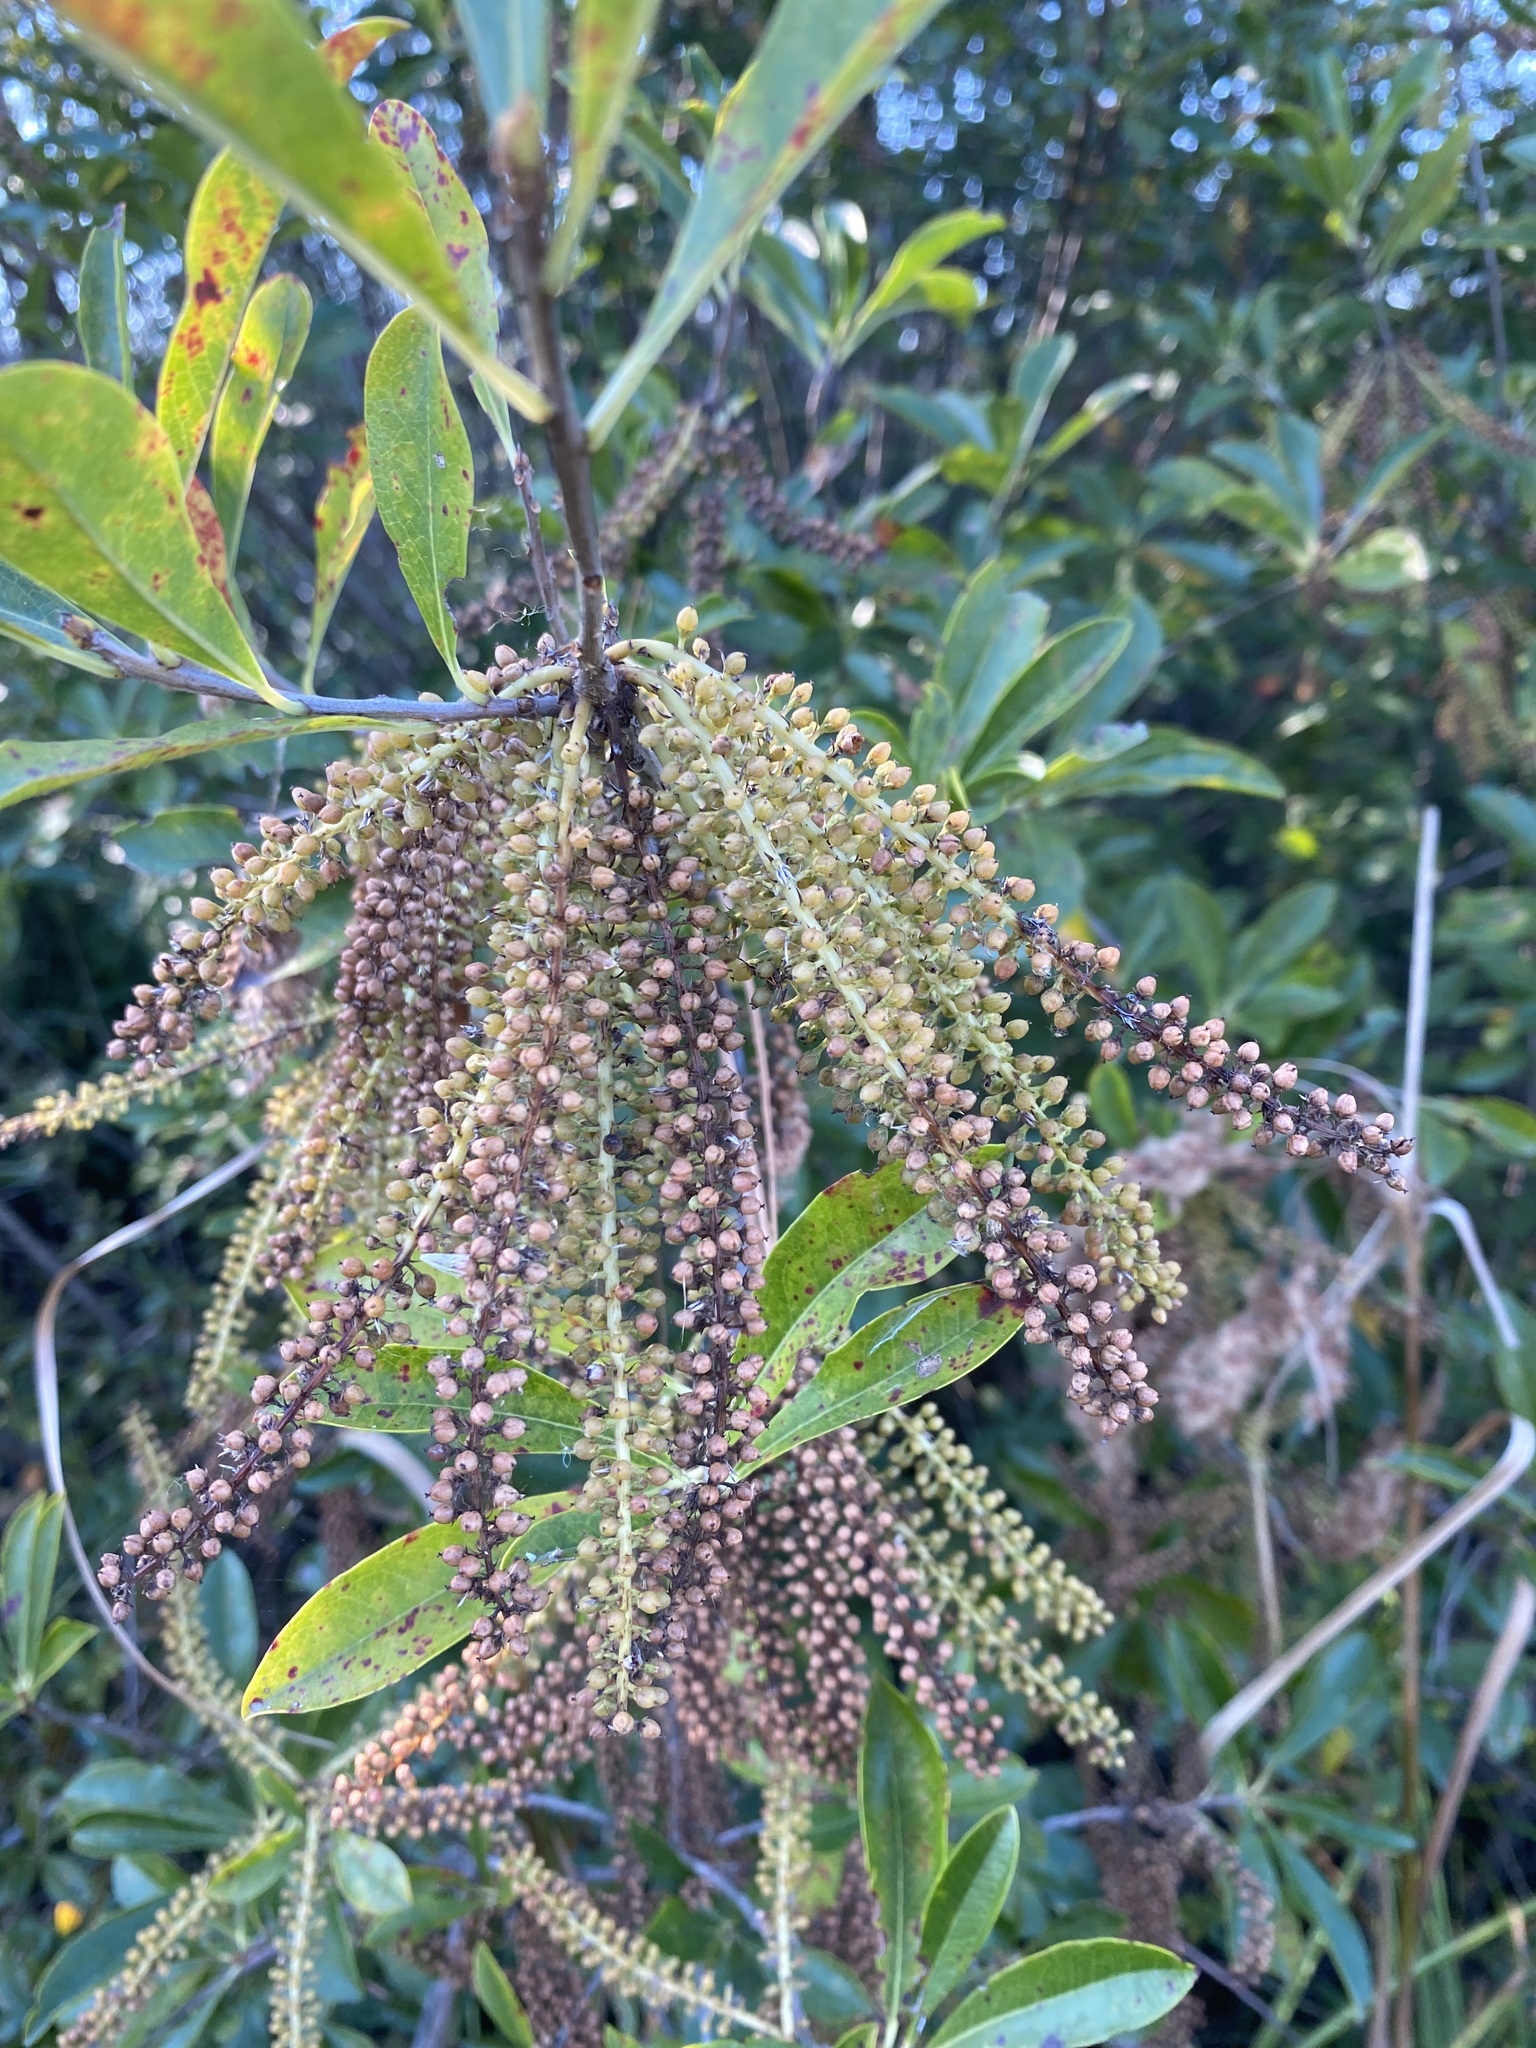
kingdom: Plantae
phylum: Tracheophyta
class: Magnoliopsida
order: Ericales
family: Cyrillaceae
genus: Cyrilla
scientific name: Cyrilla racemiflora
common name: Black titi
